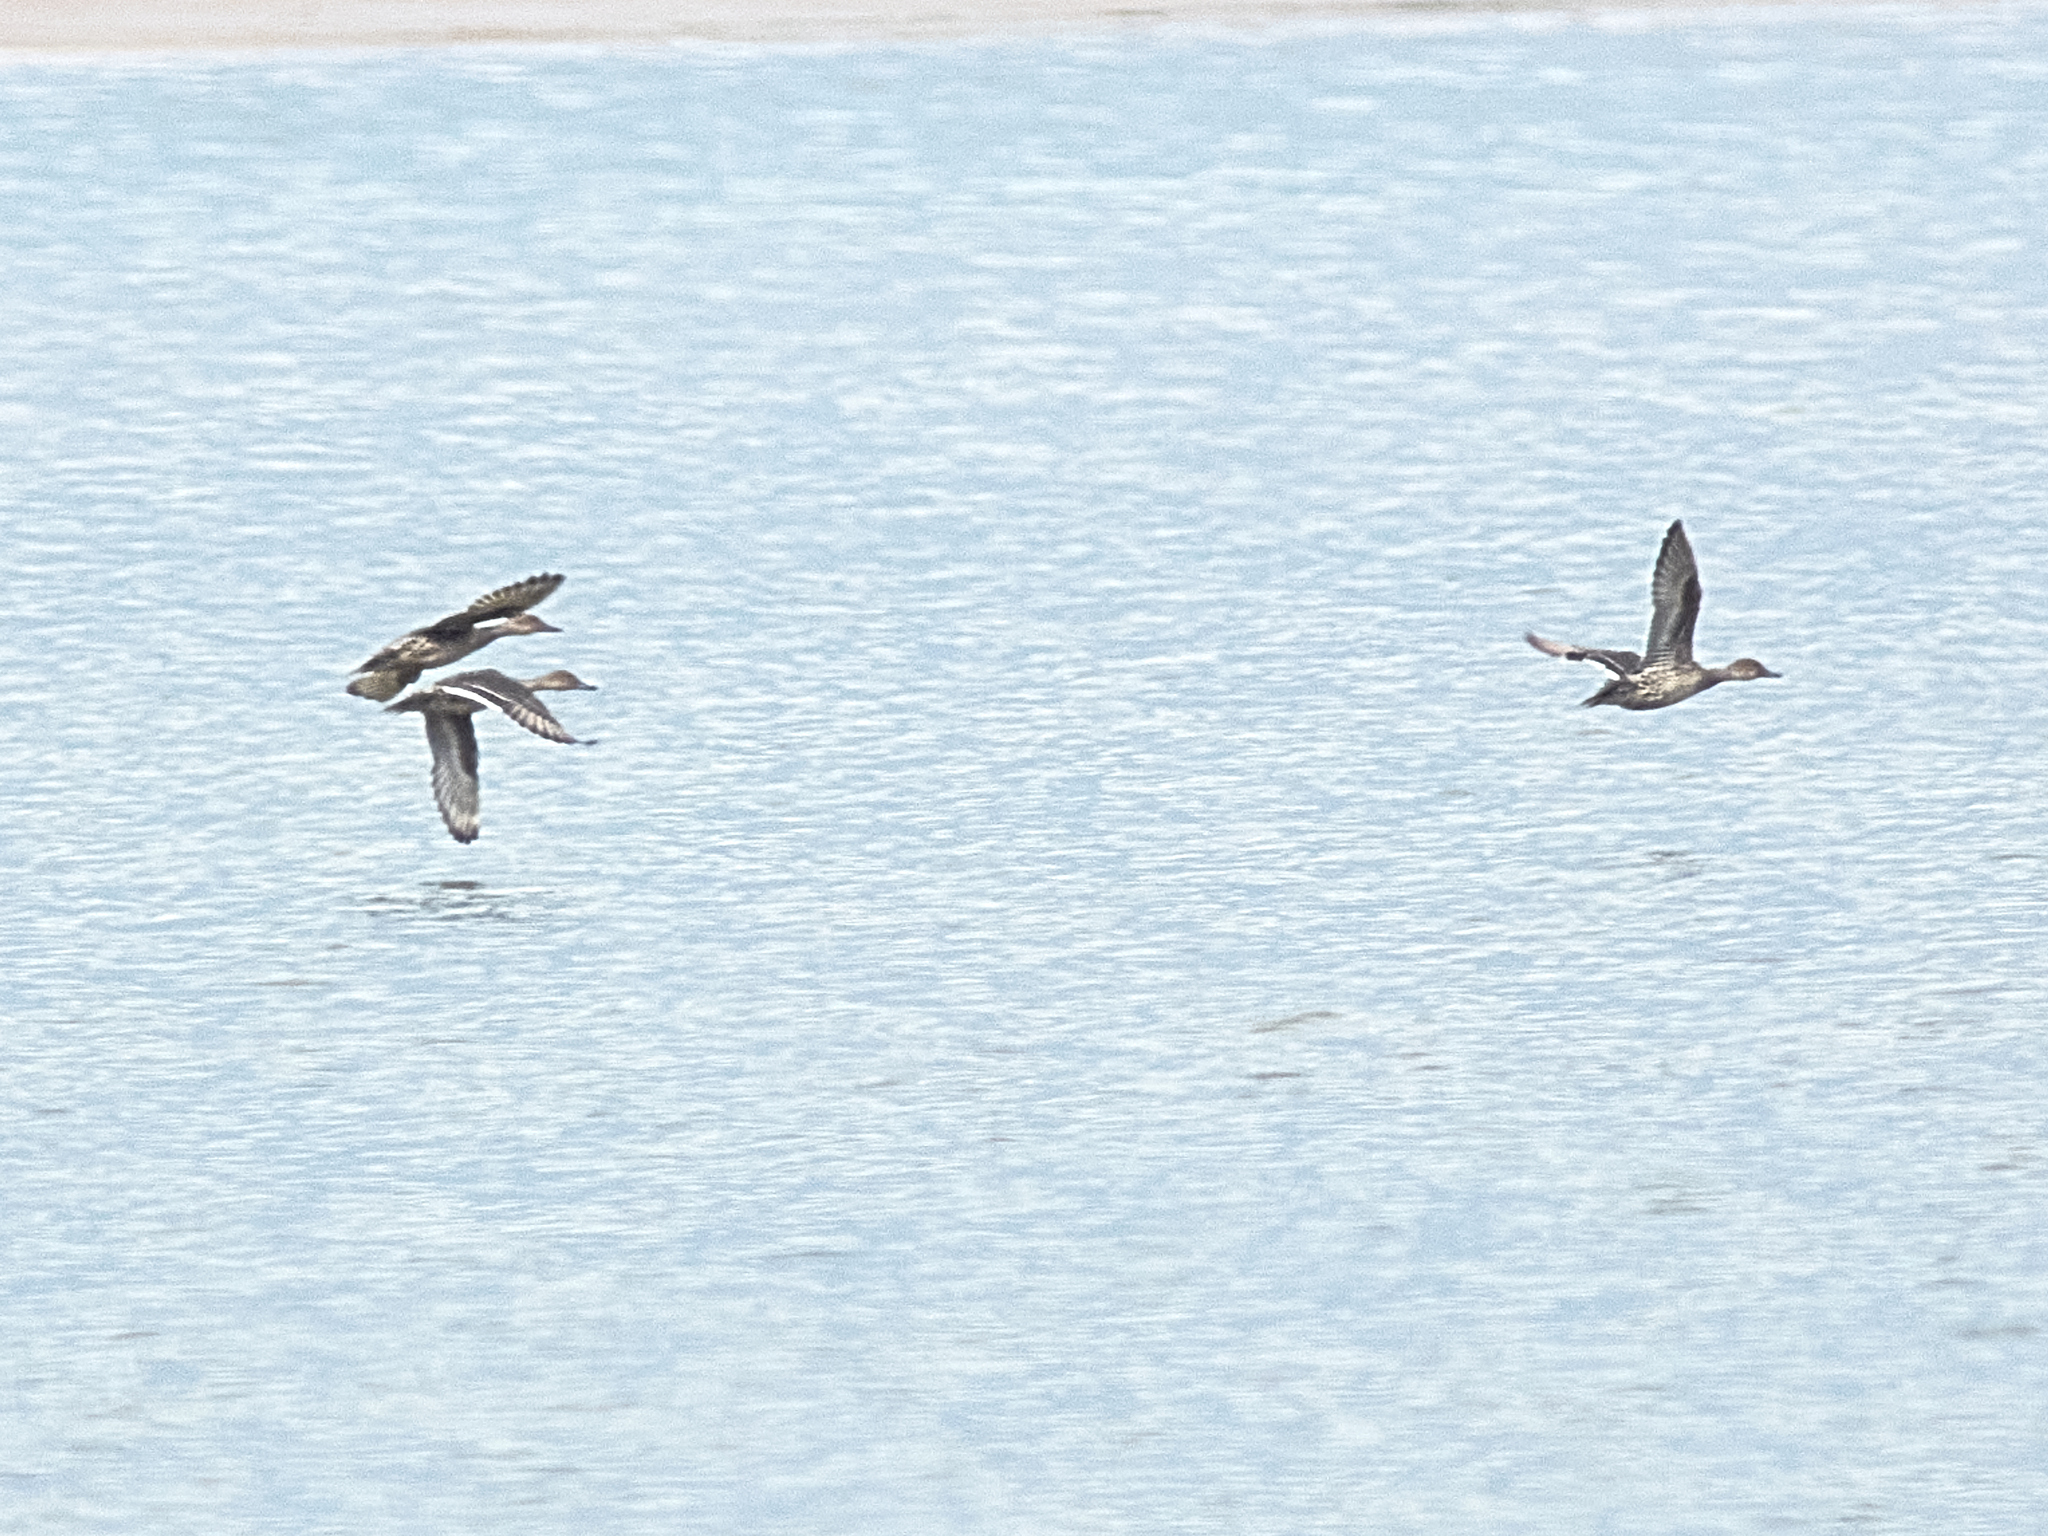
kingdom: Animalia
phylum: Chordata
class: Aves
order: Anseriformes
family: Anatidae
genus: Anas
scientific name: Anas acuta
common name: Northern pintail
